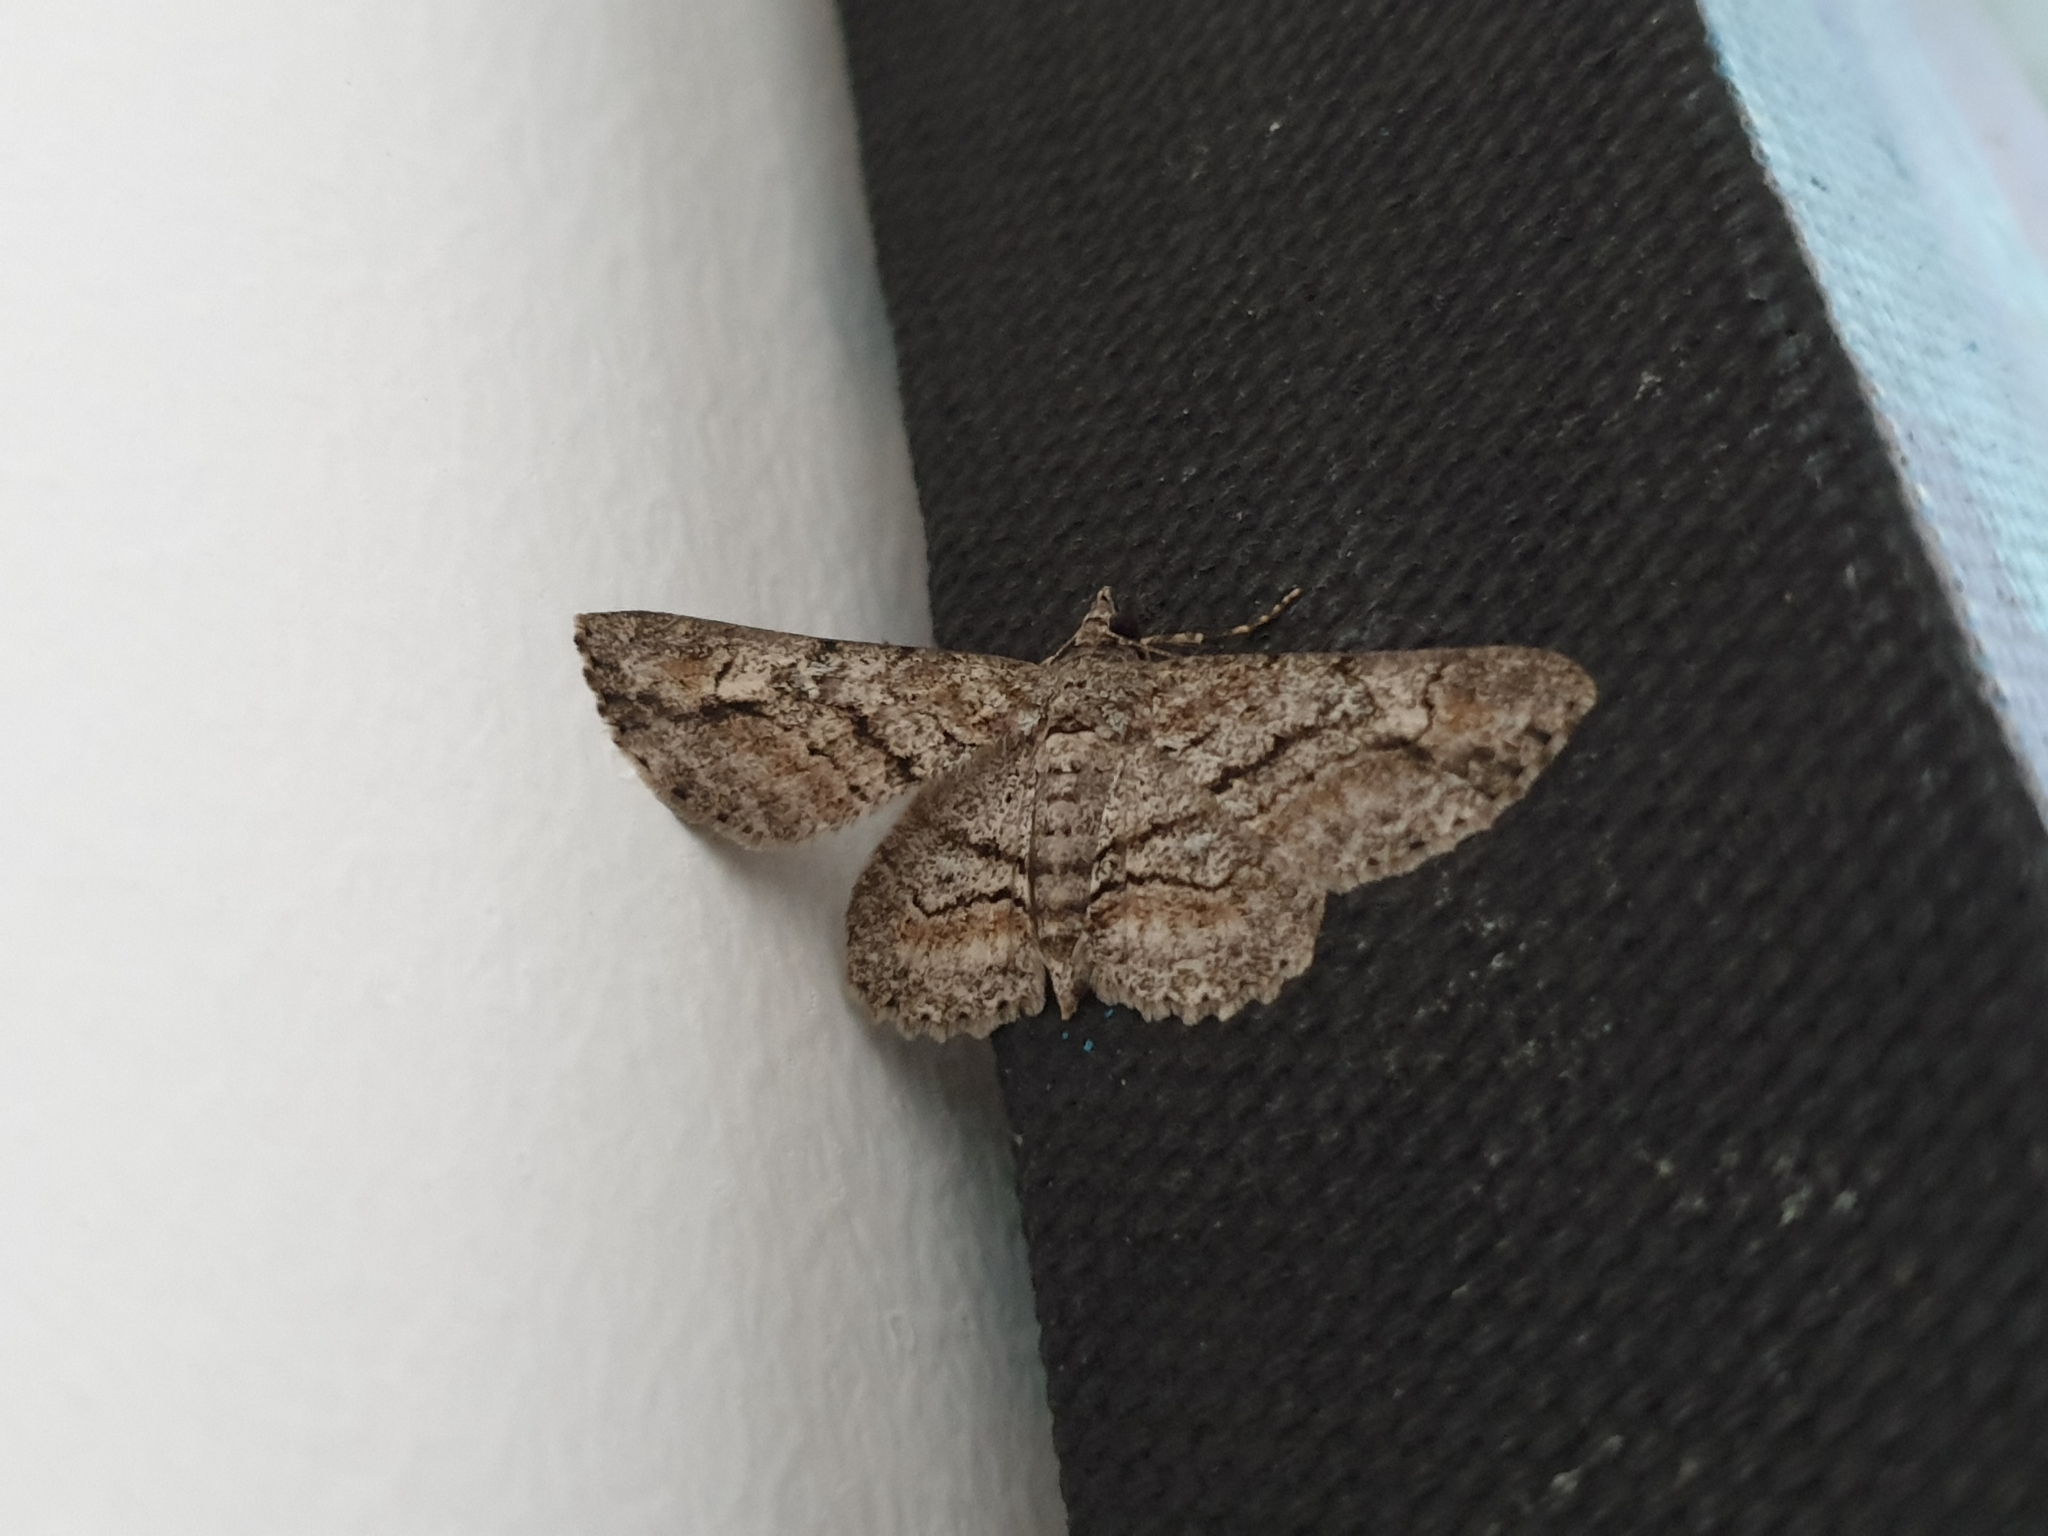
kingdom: Animalia
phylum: Arthropoda
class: Insecta
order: Lepidoptera
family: Geometridae
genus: Cleora
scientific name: Cleora injectaria
